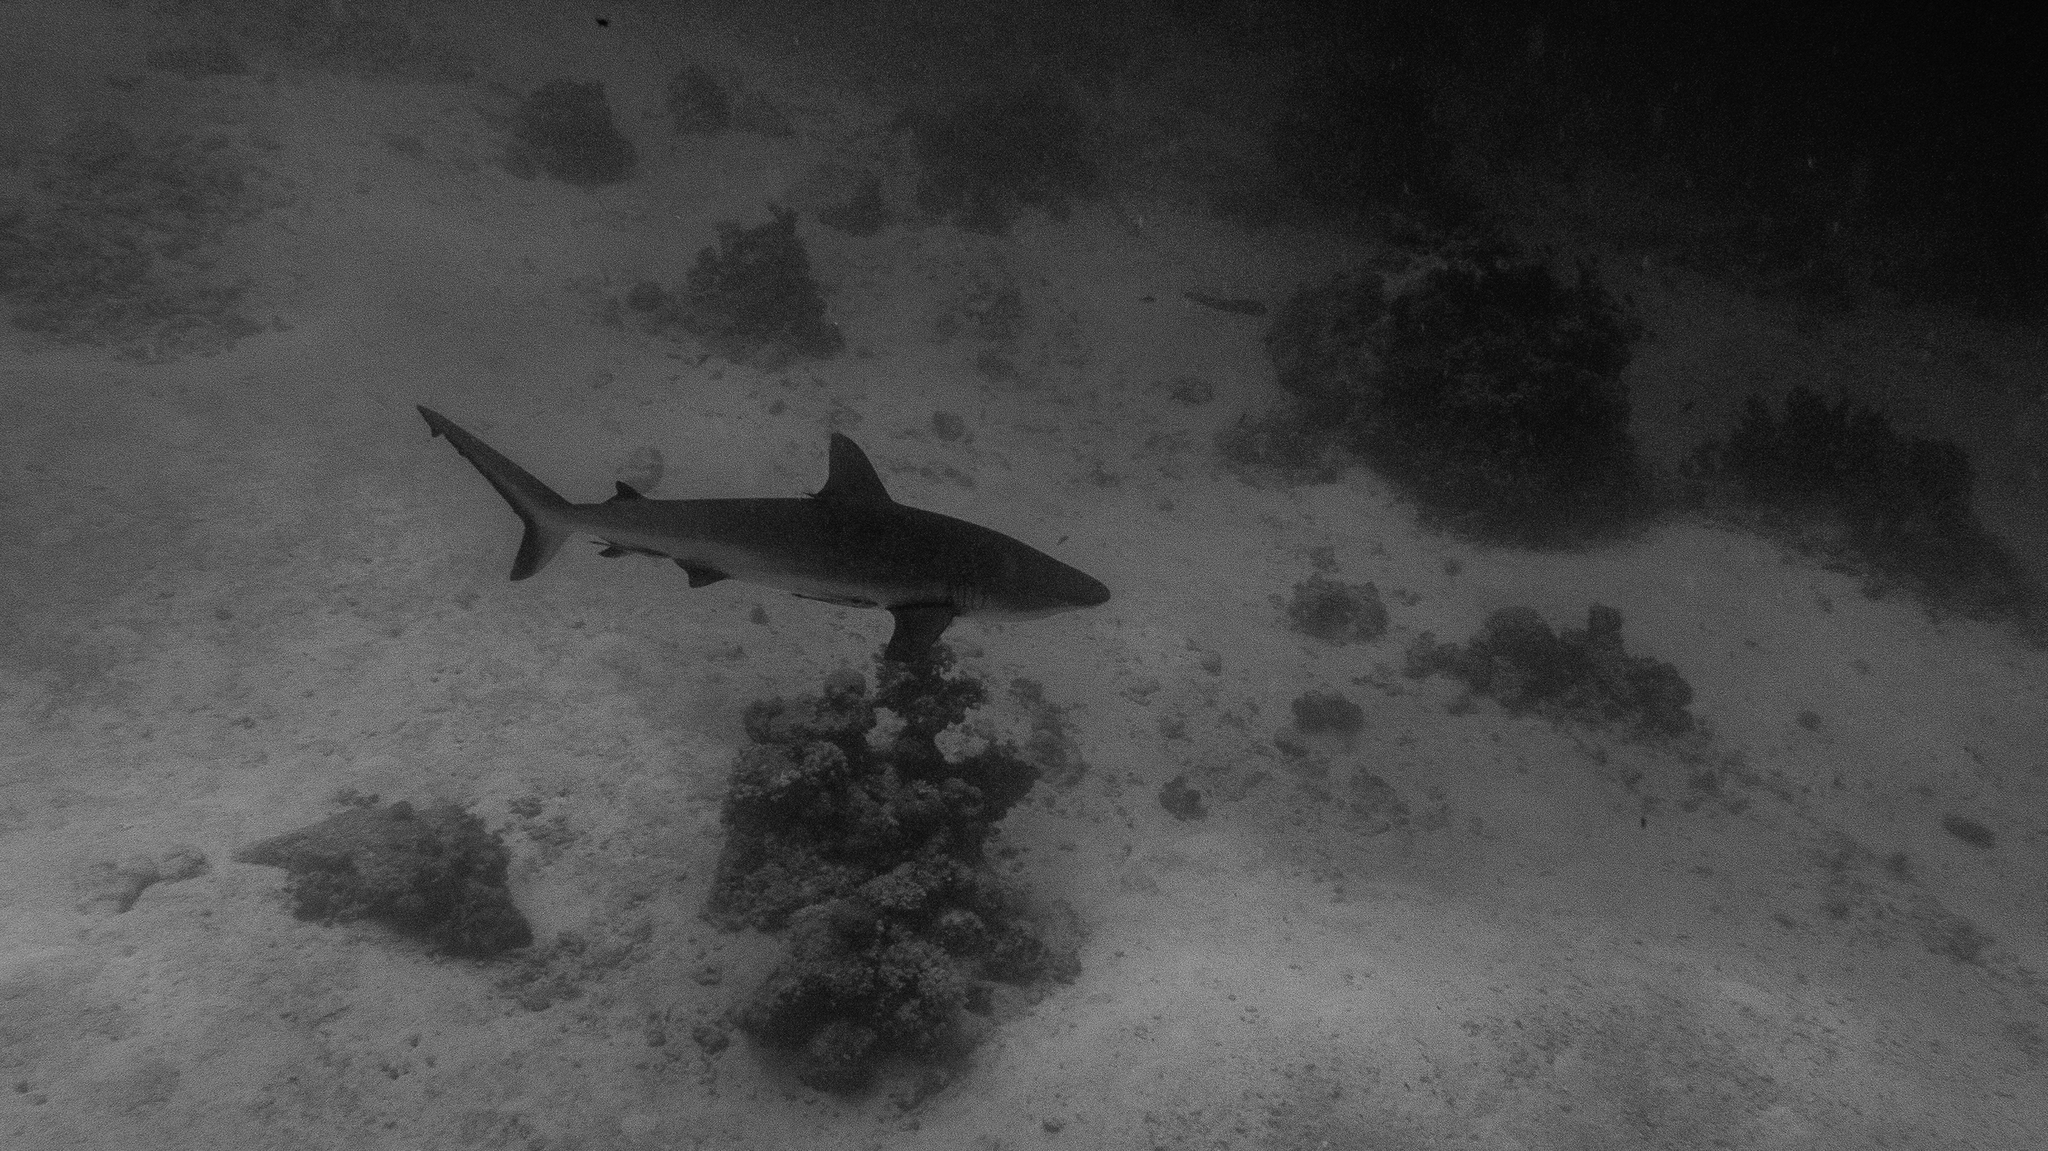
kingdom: Animalia
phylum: Chordata
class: Elasmobranchii
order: Carcharhiniformes
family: Carcharhinidae
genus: Carcharhinus
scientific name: Carcharhinus amblyrhynchos
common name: Grey reef shark
